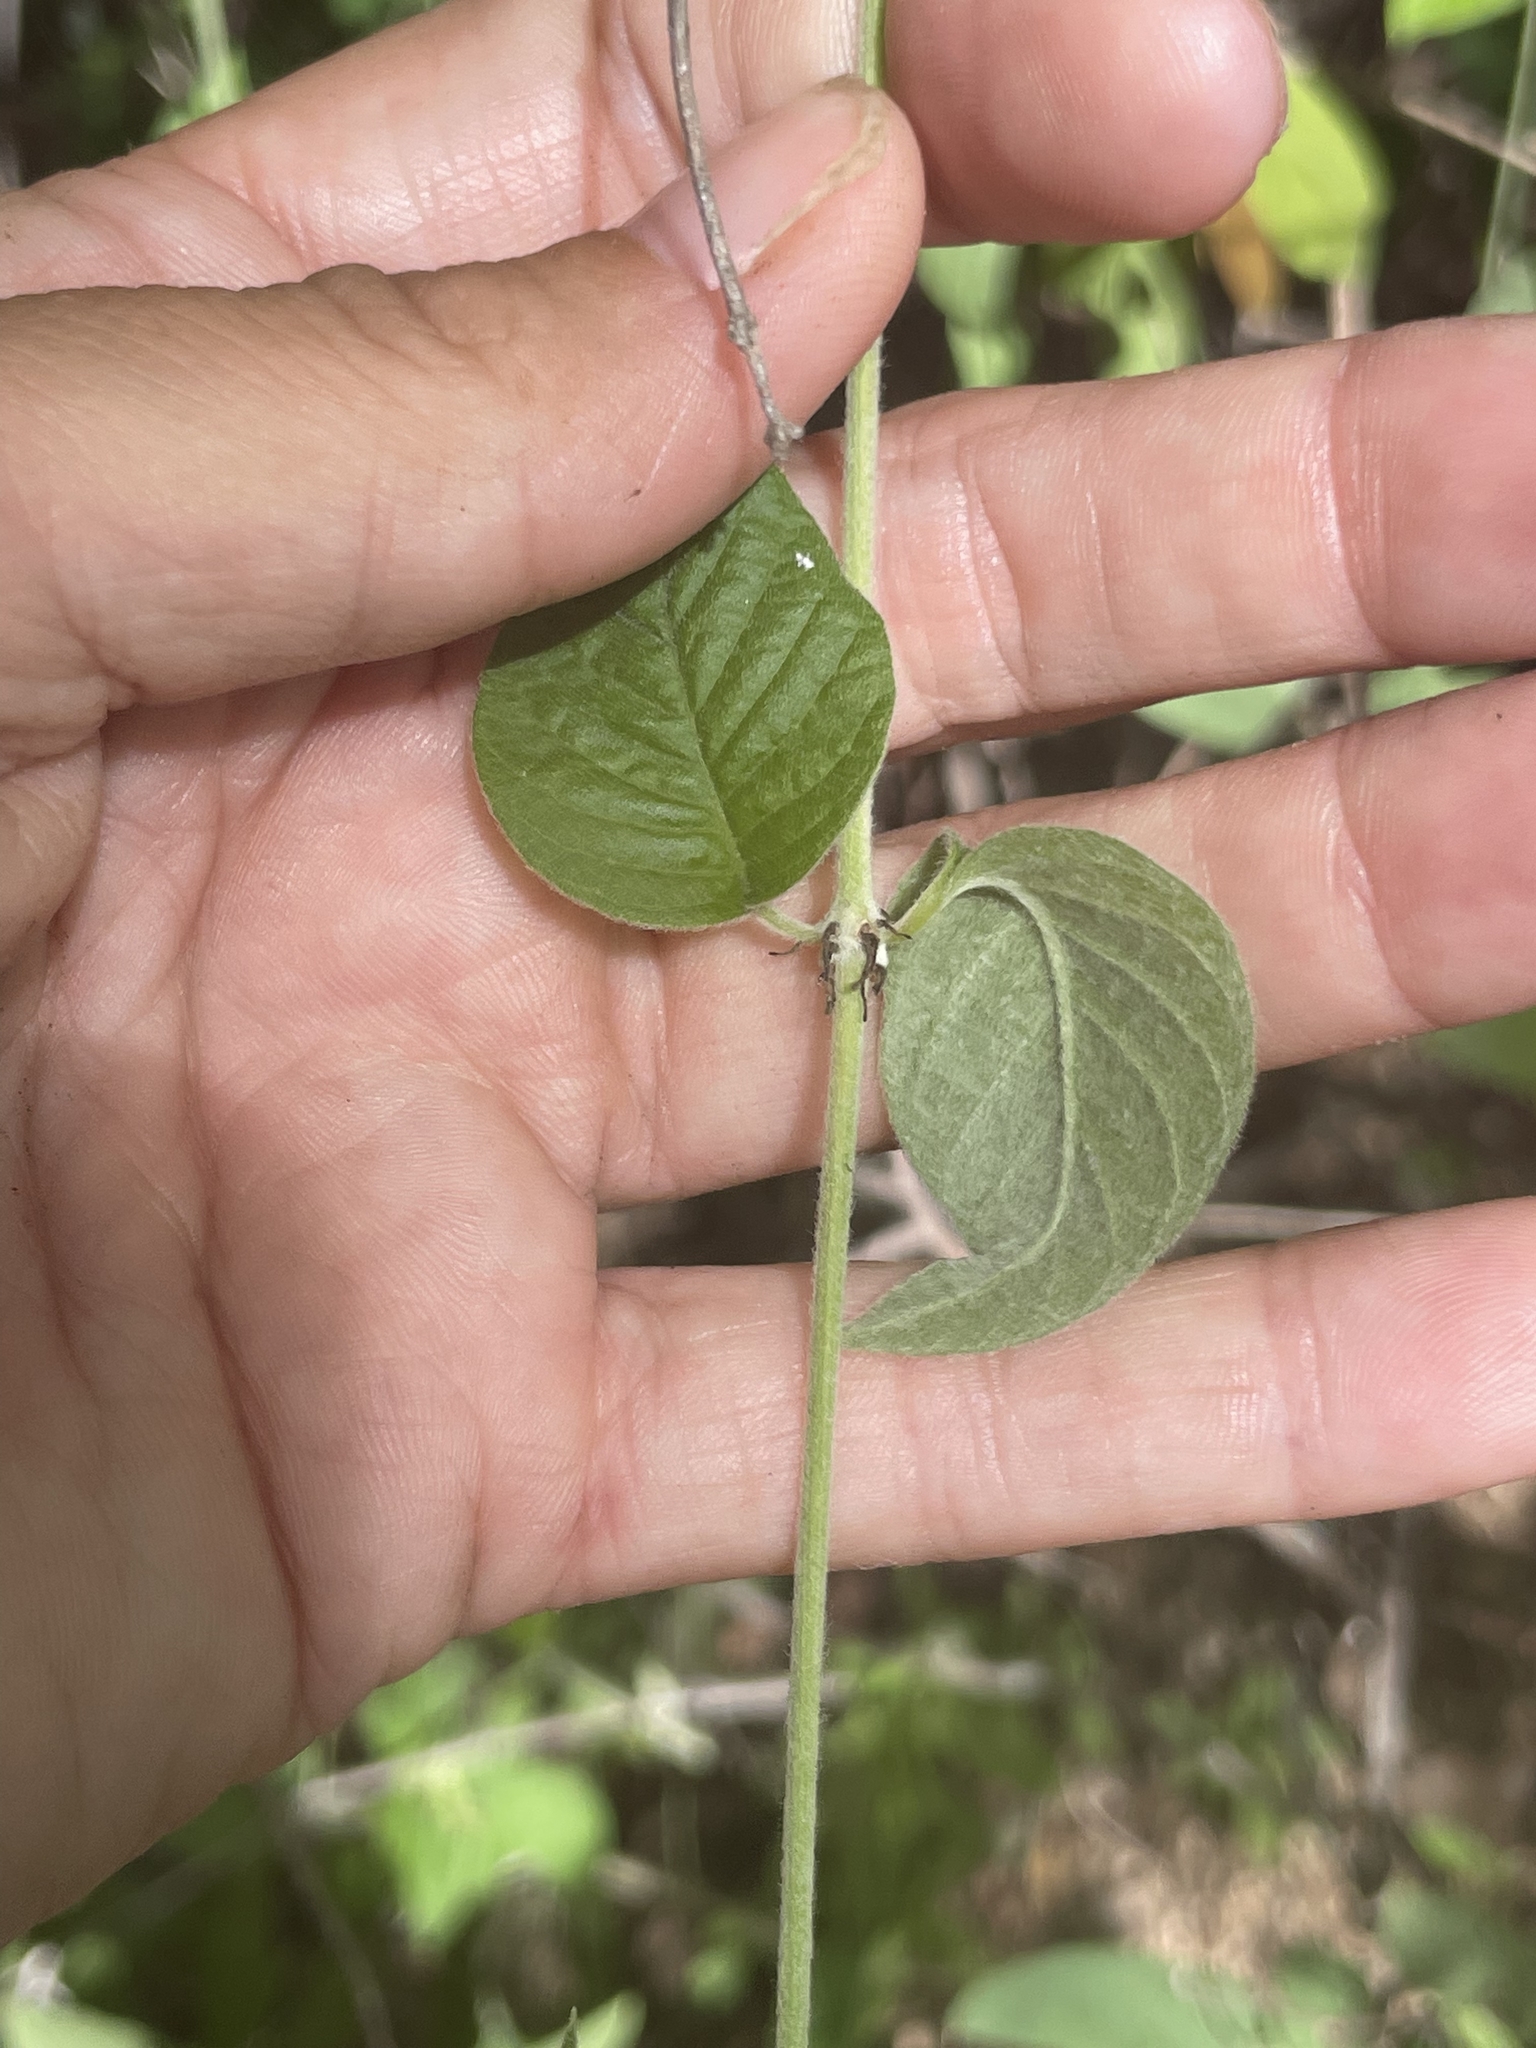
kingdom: Plantae
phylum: Tracheophyta
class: Magnoliopsida
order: Rosales
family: Rhamnaceae
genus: Karwinskia
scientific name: Karwinskia humboldtiana
